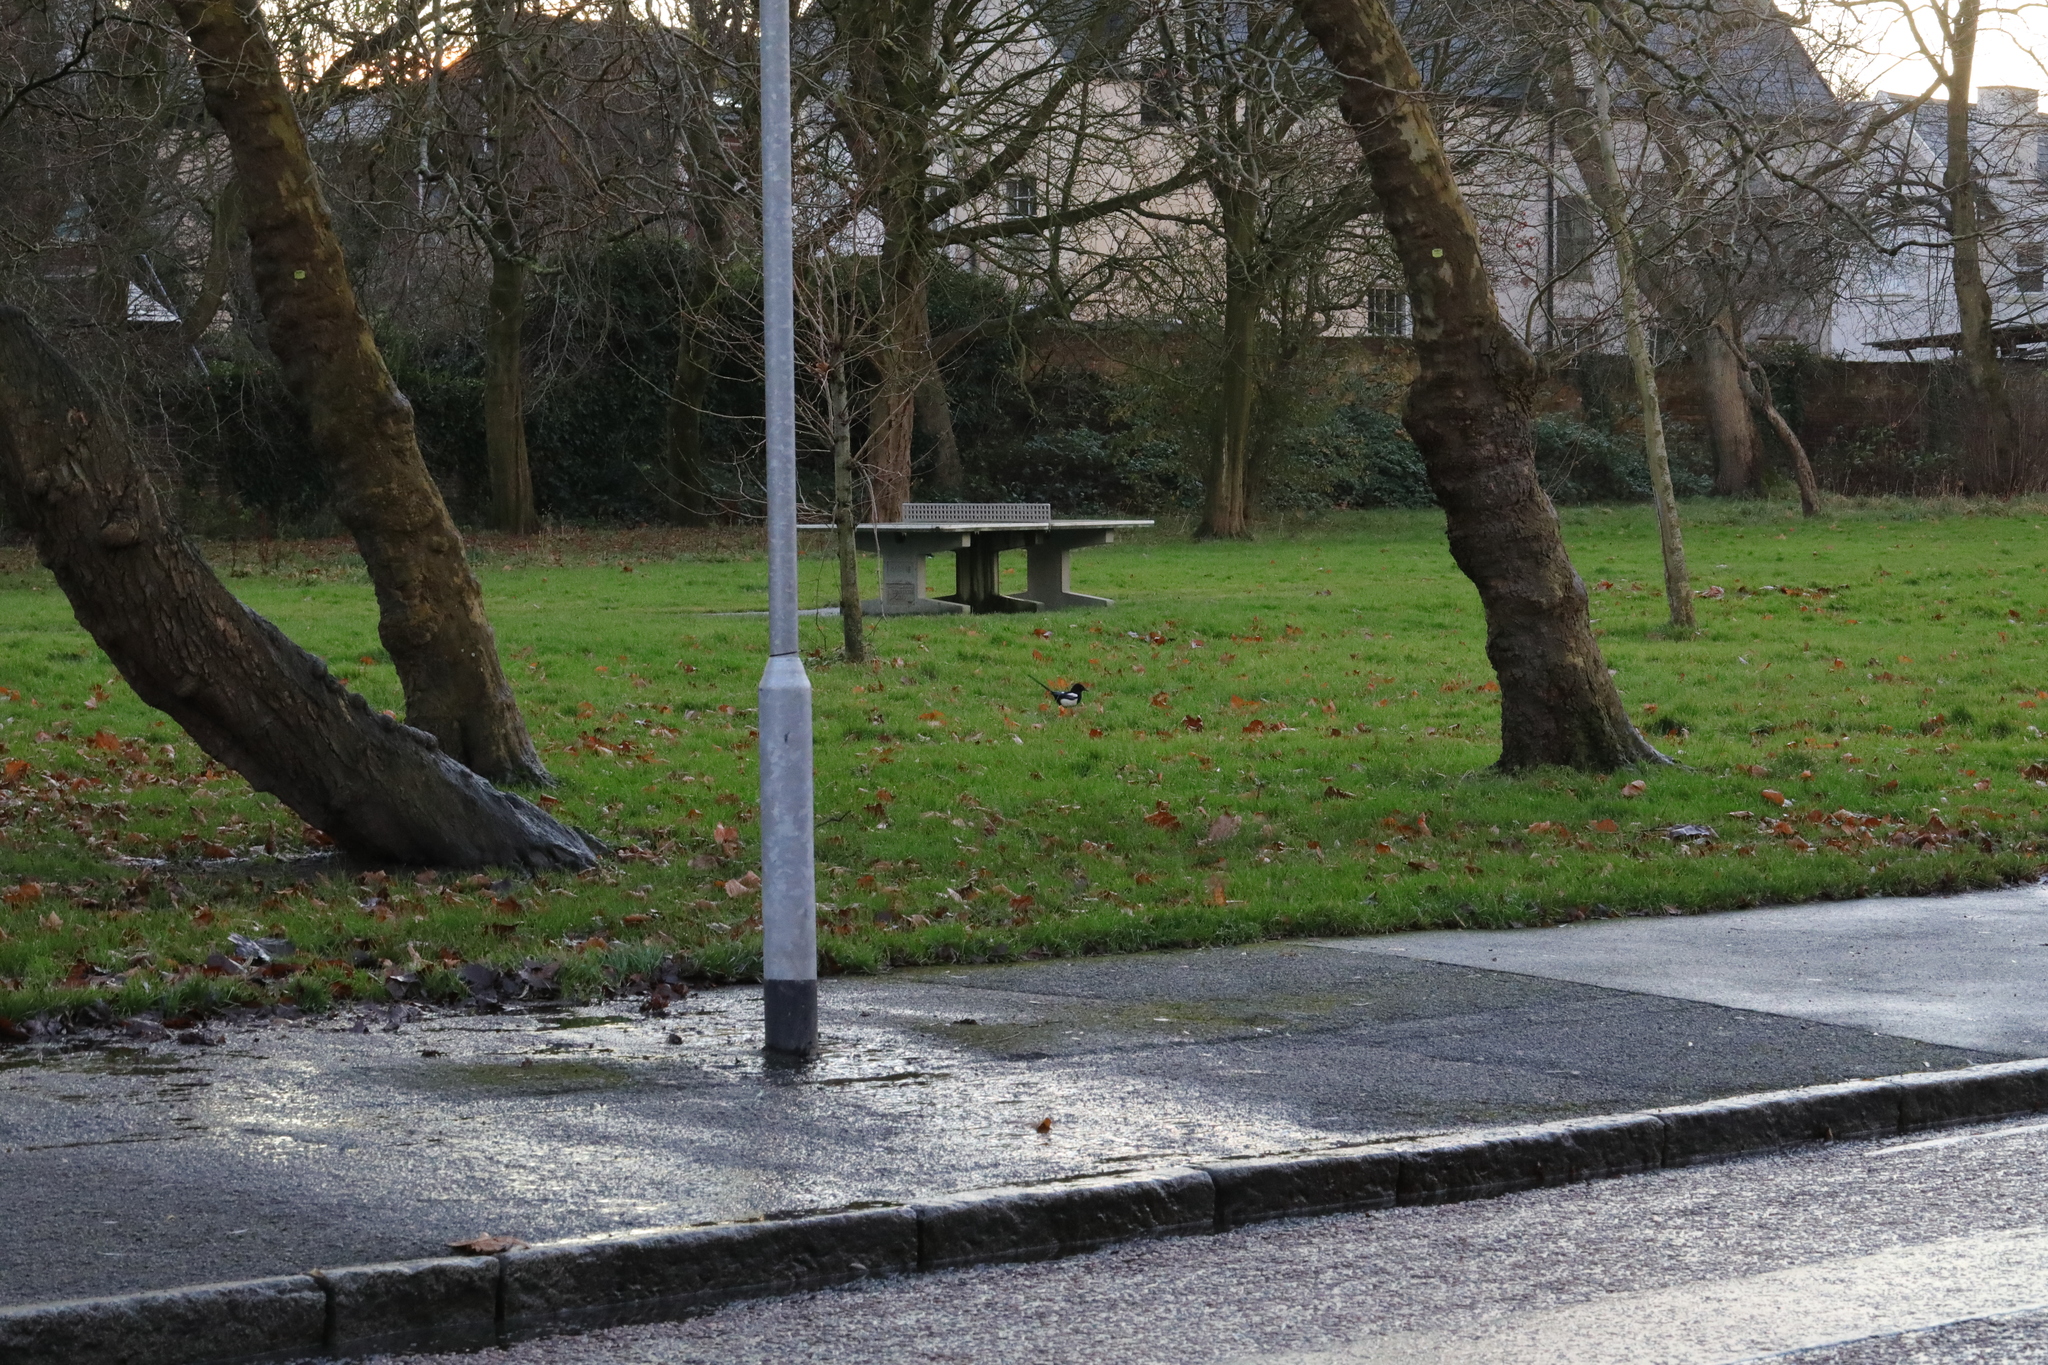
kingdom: Animalia
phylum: Chordata
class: Aves
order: Passeriformes
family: Corvidae
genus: Pica
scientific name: Pica pica
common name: Eurasian magpie
